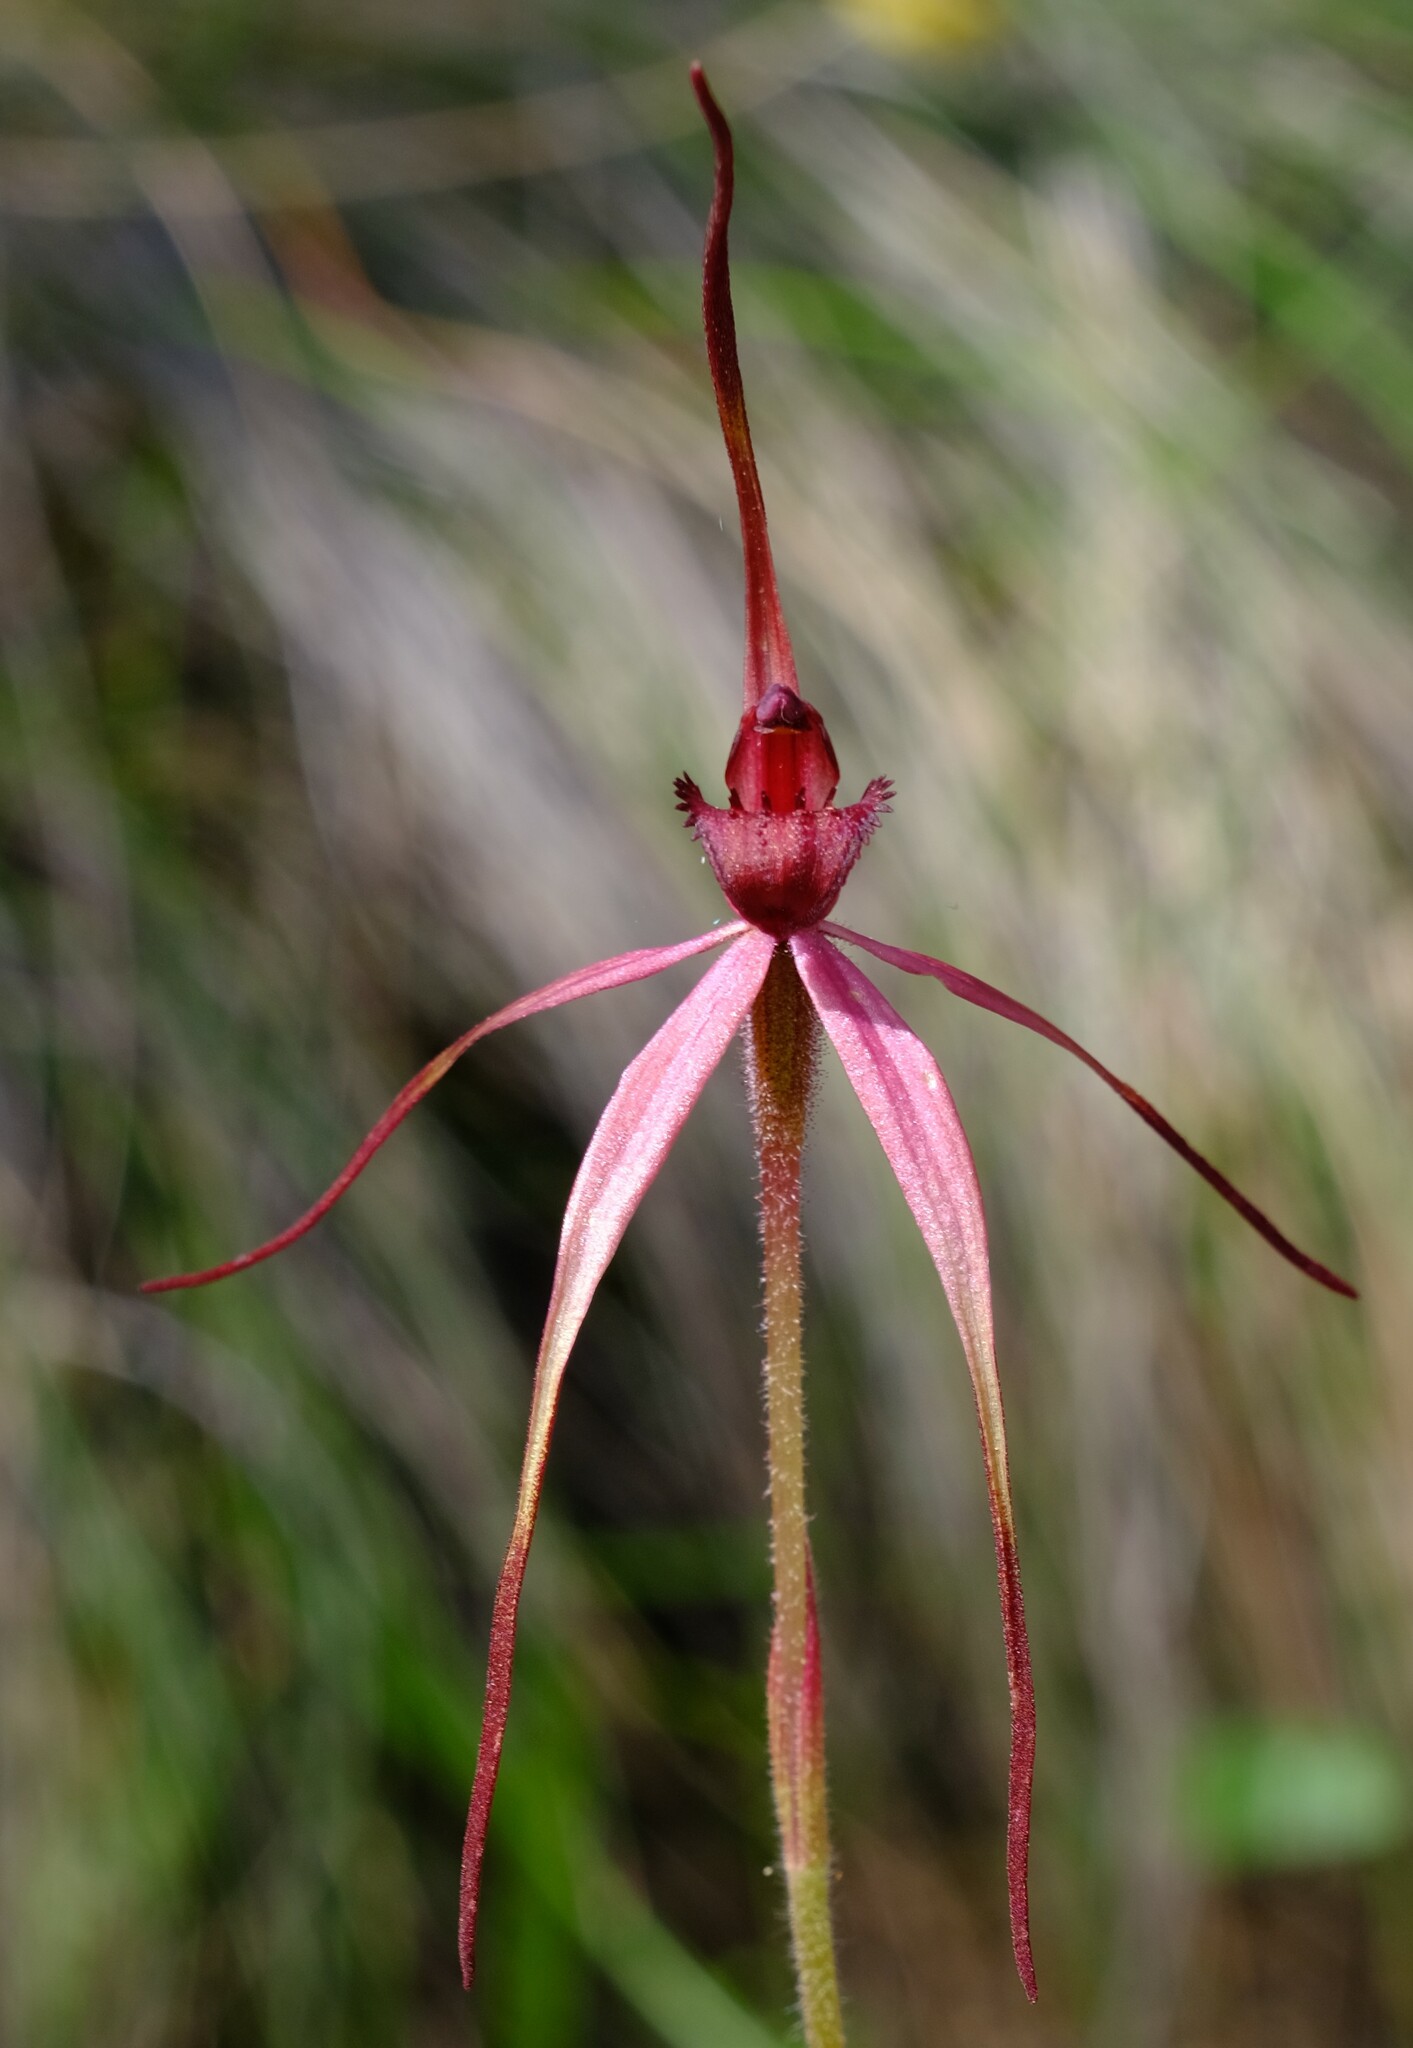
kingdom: Plantae
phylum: Tracheophyta
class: Liliopsida
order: Asparagales
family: Orchidaceae
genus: Caladenia
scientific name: Caladenia clavescens
